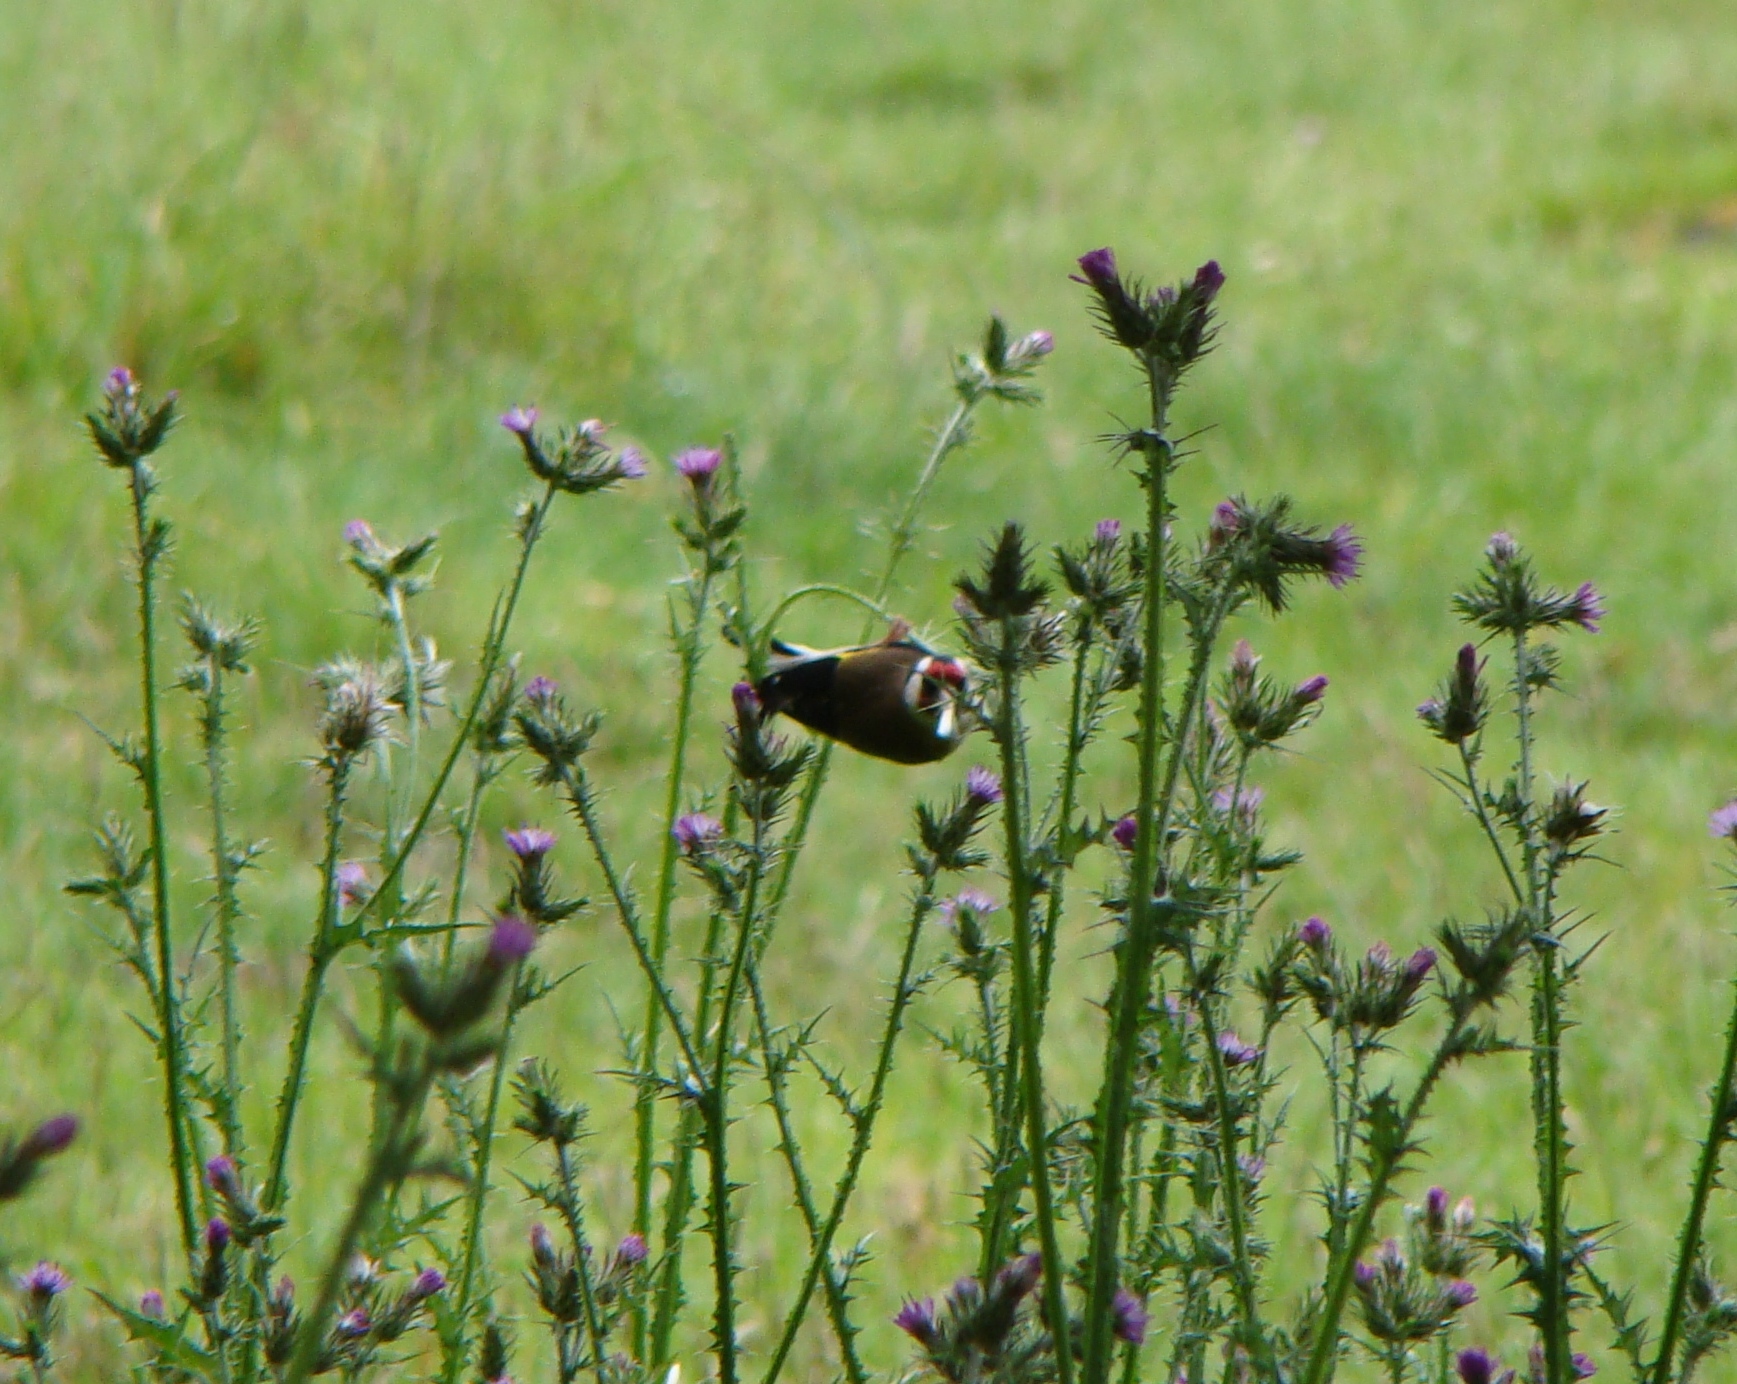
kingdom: Animalia
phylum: Chordata
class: Aves
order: Passeriformes
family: Fringillidae
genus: Carduelis
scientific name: Carduelis carduelis
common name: European goldfinch
